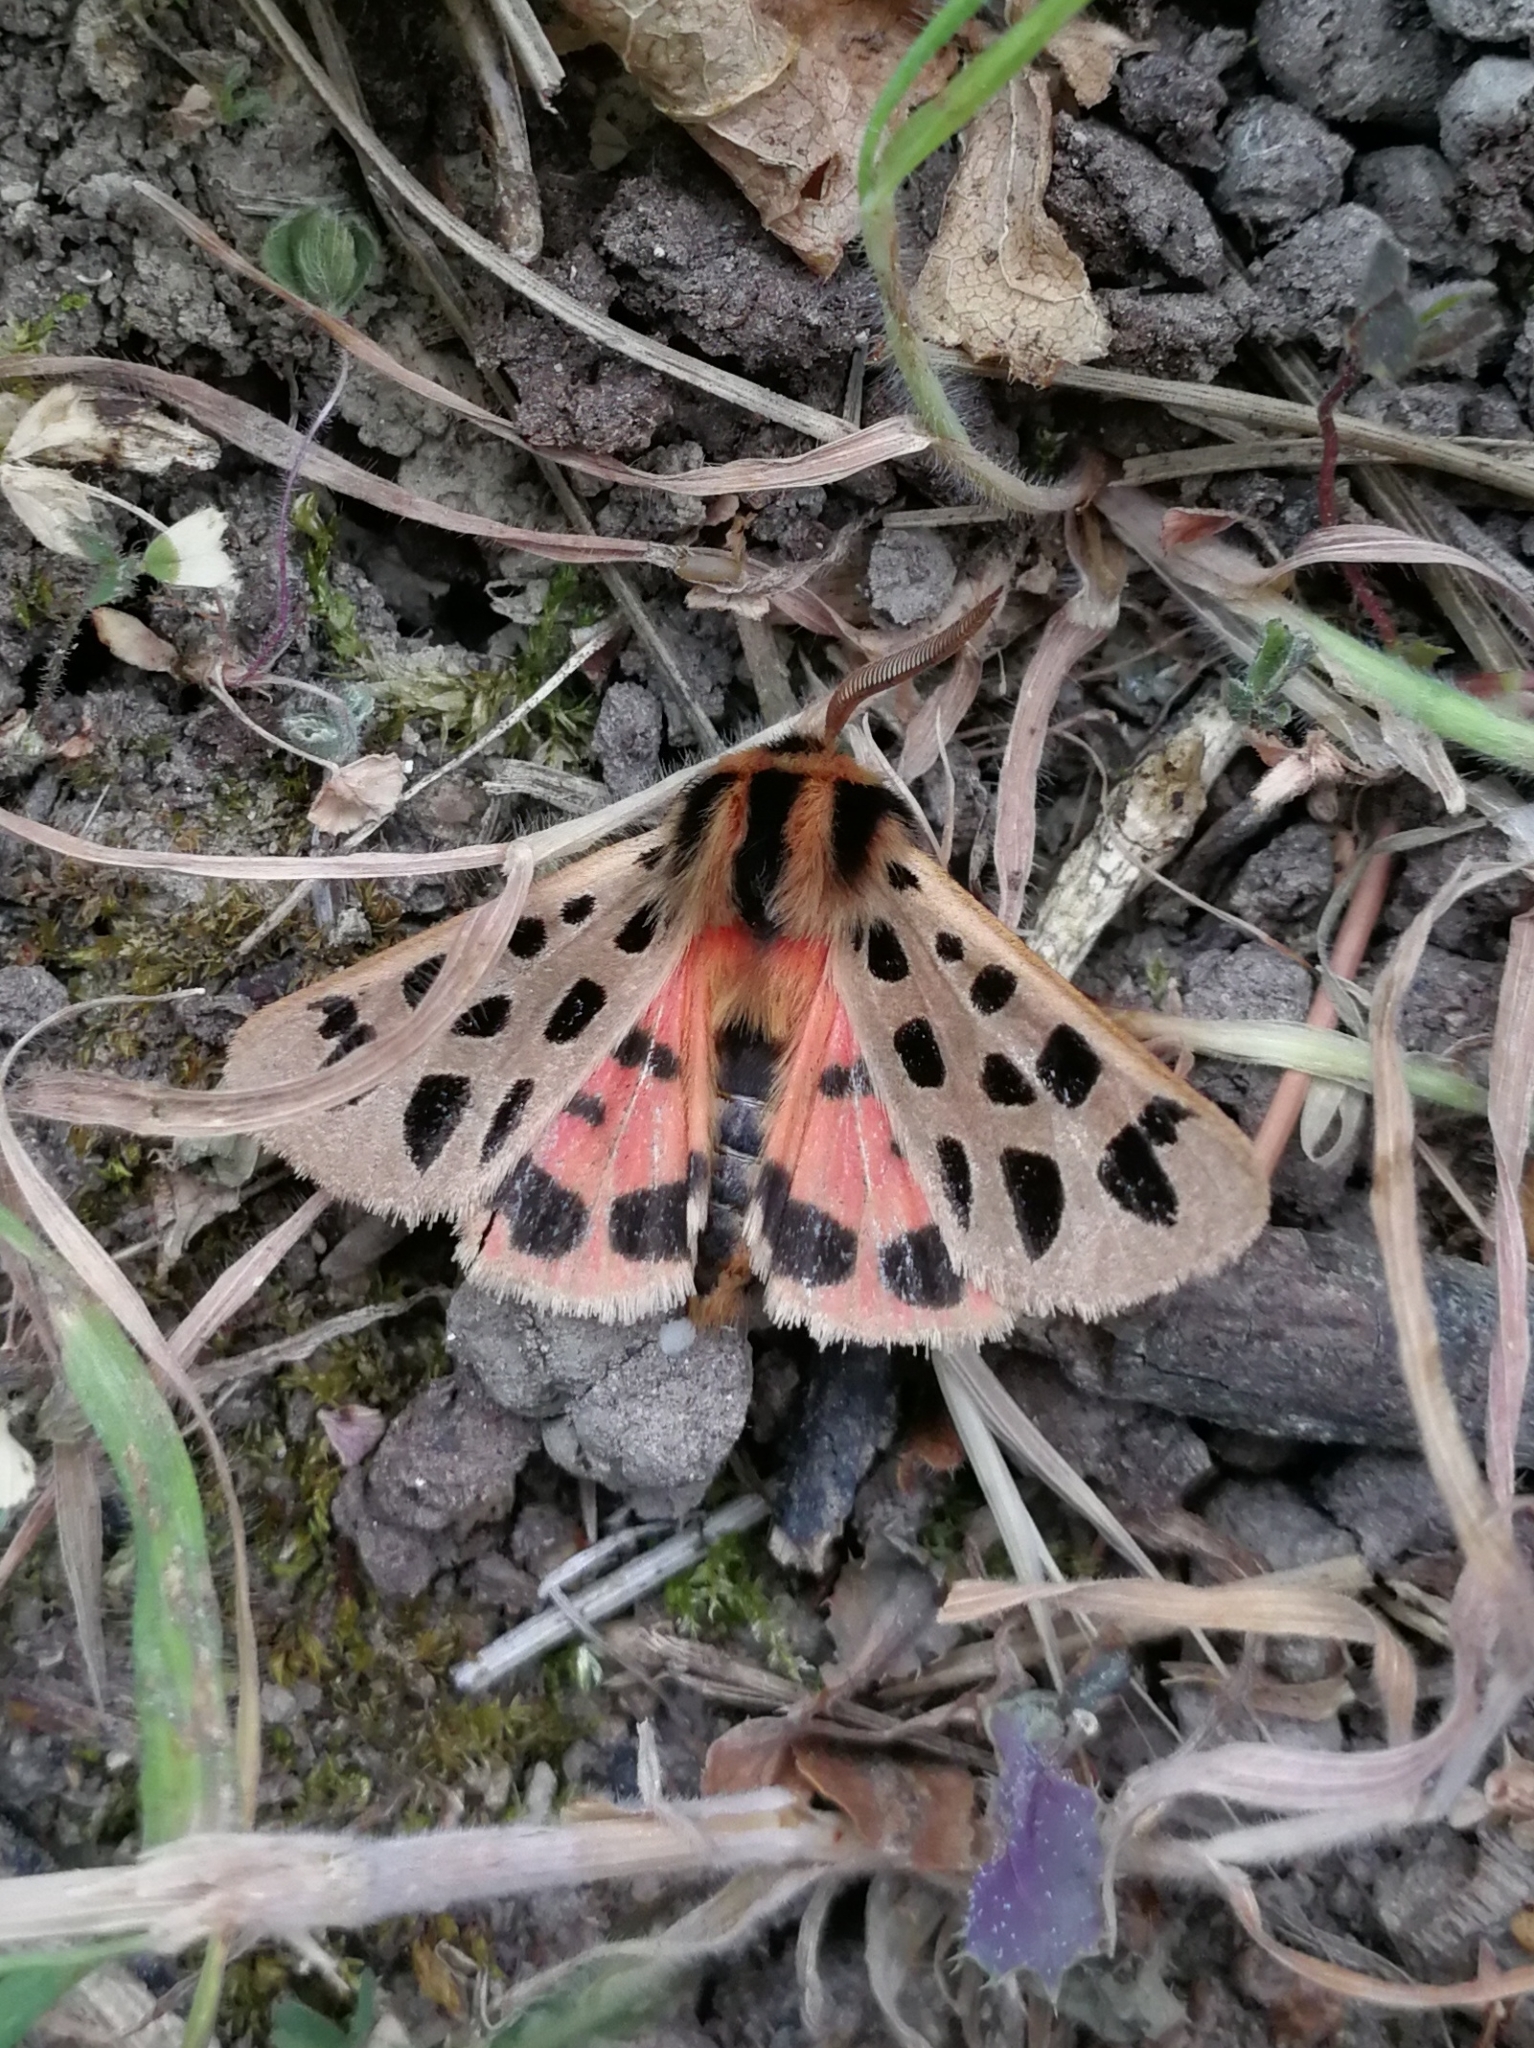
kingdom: Animalia
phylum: Arthropoda
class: Insecta
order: Lepidoptera
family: Erebidae
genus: Chelis
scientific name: Chelis maculosa
